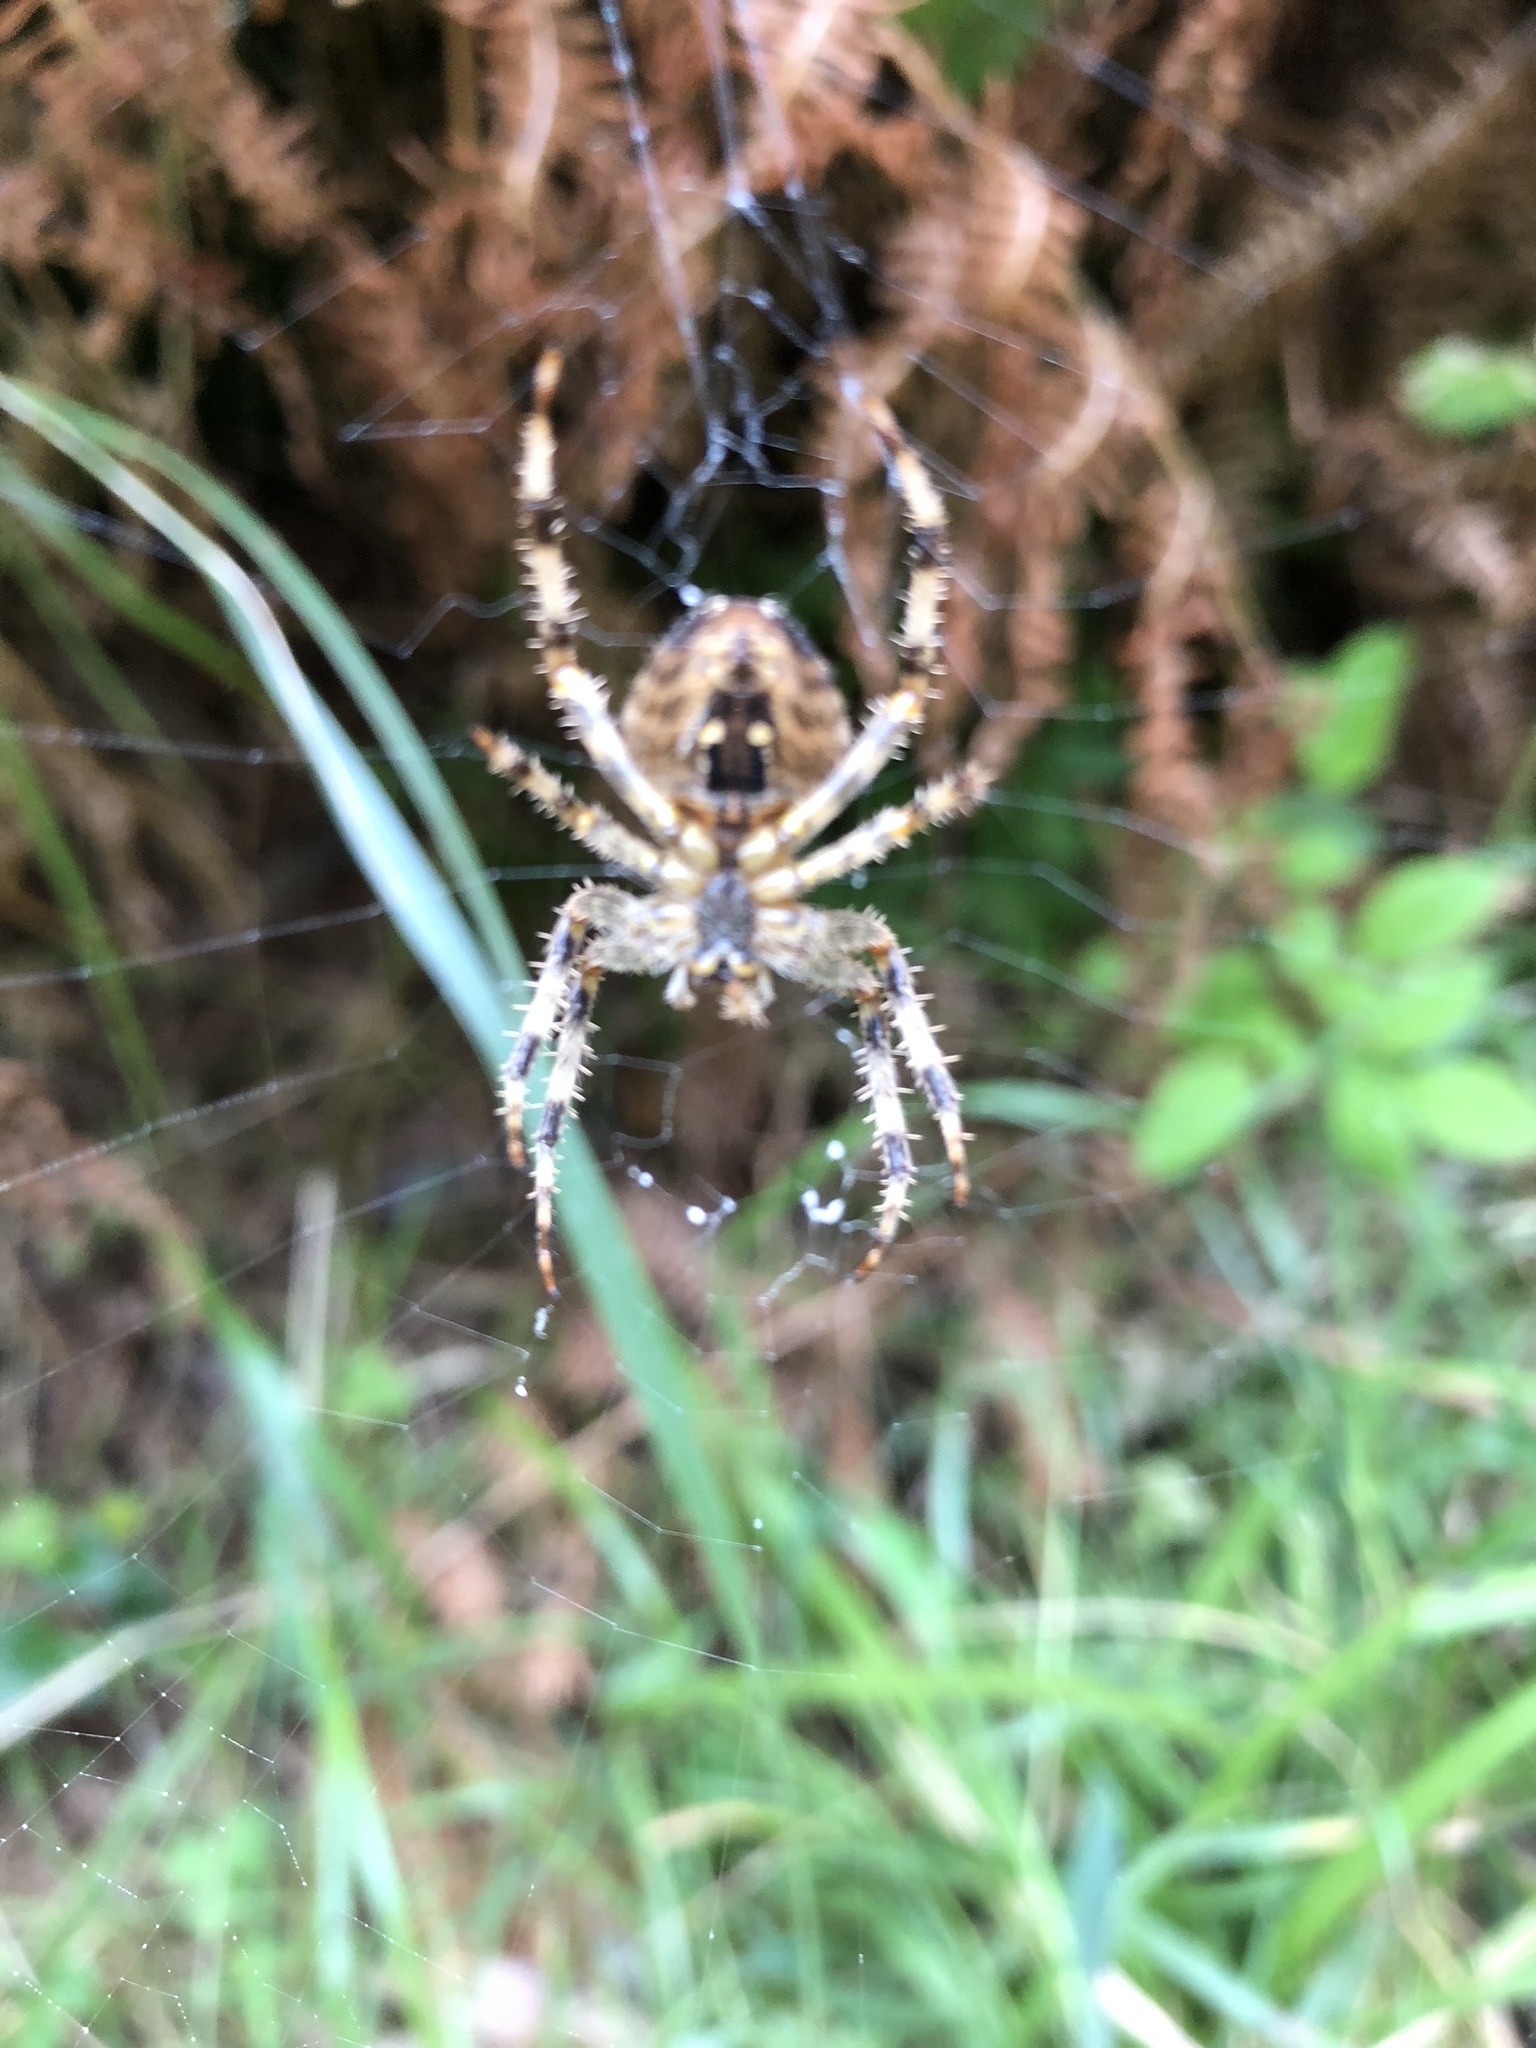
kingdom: Animalia
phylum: Arthropoda
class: Arachnida
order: Araneae
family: Araneidae
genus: Araneus
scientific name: Araneus diadematus
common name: Cross orbweaver
